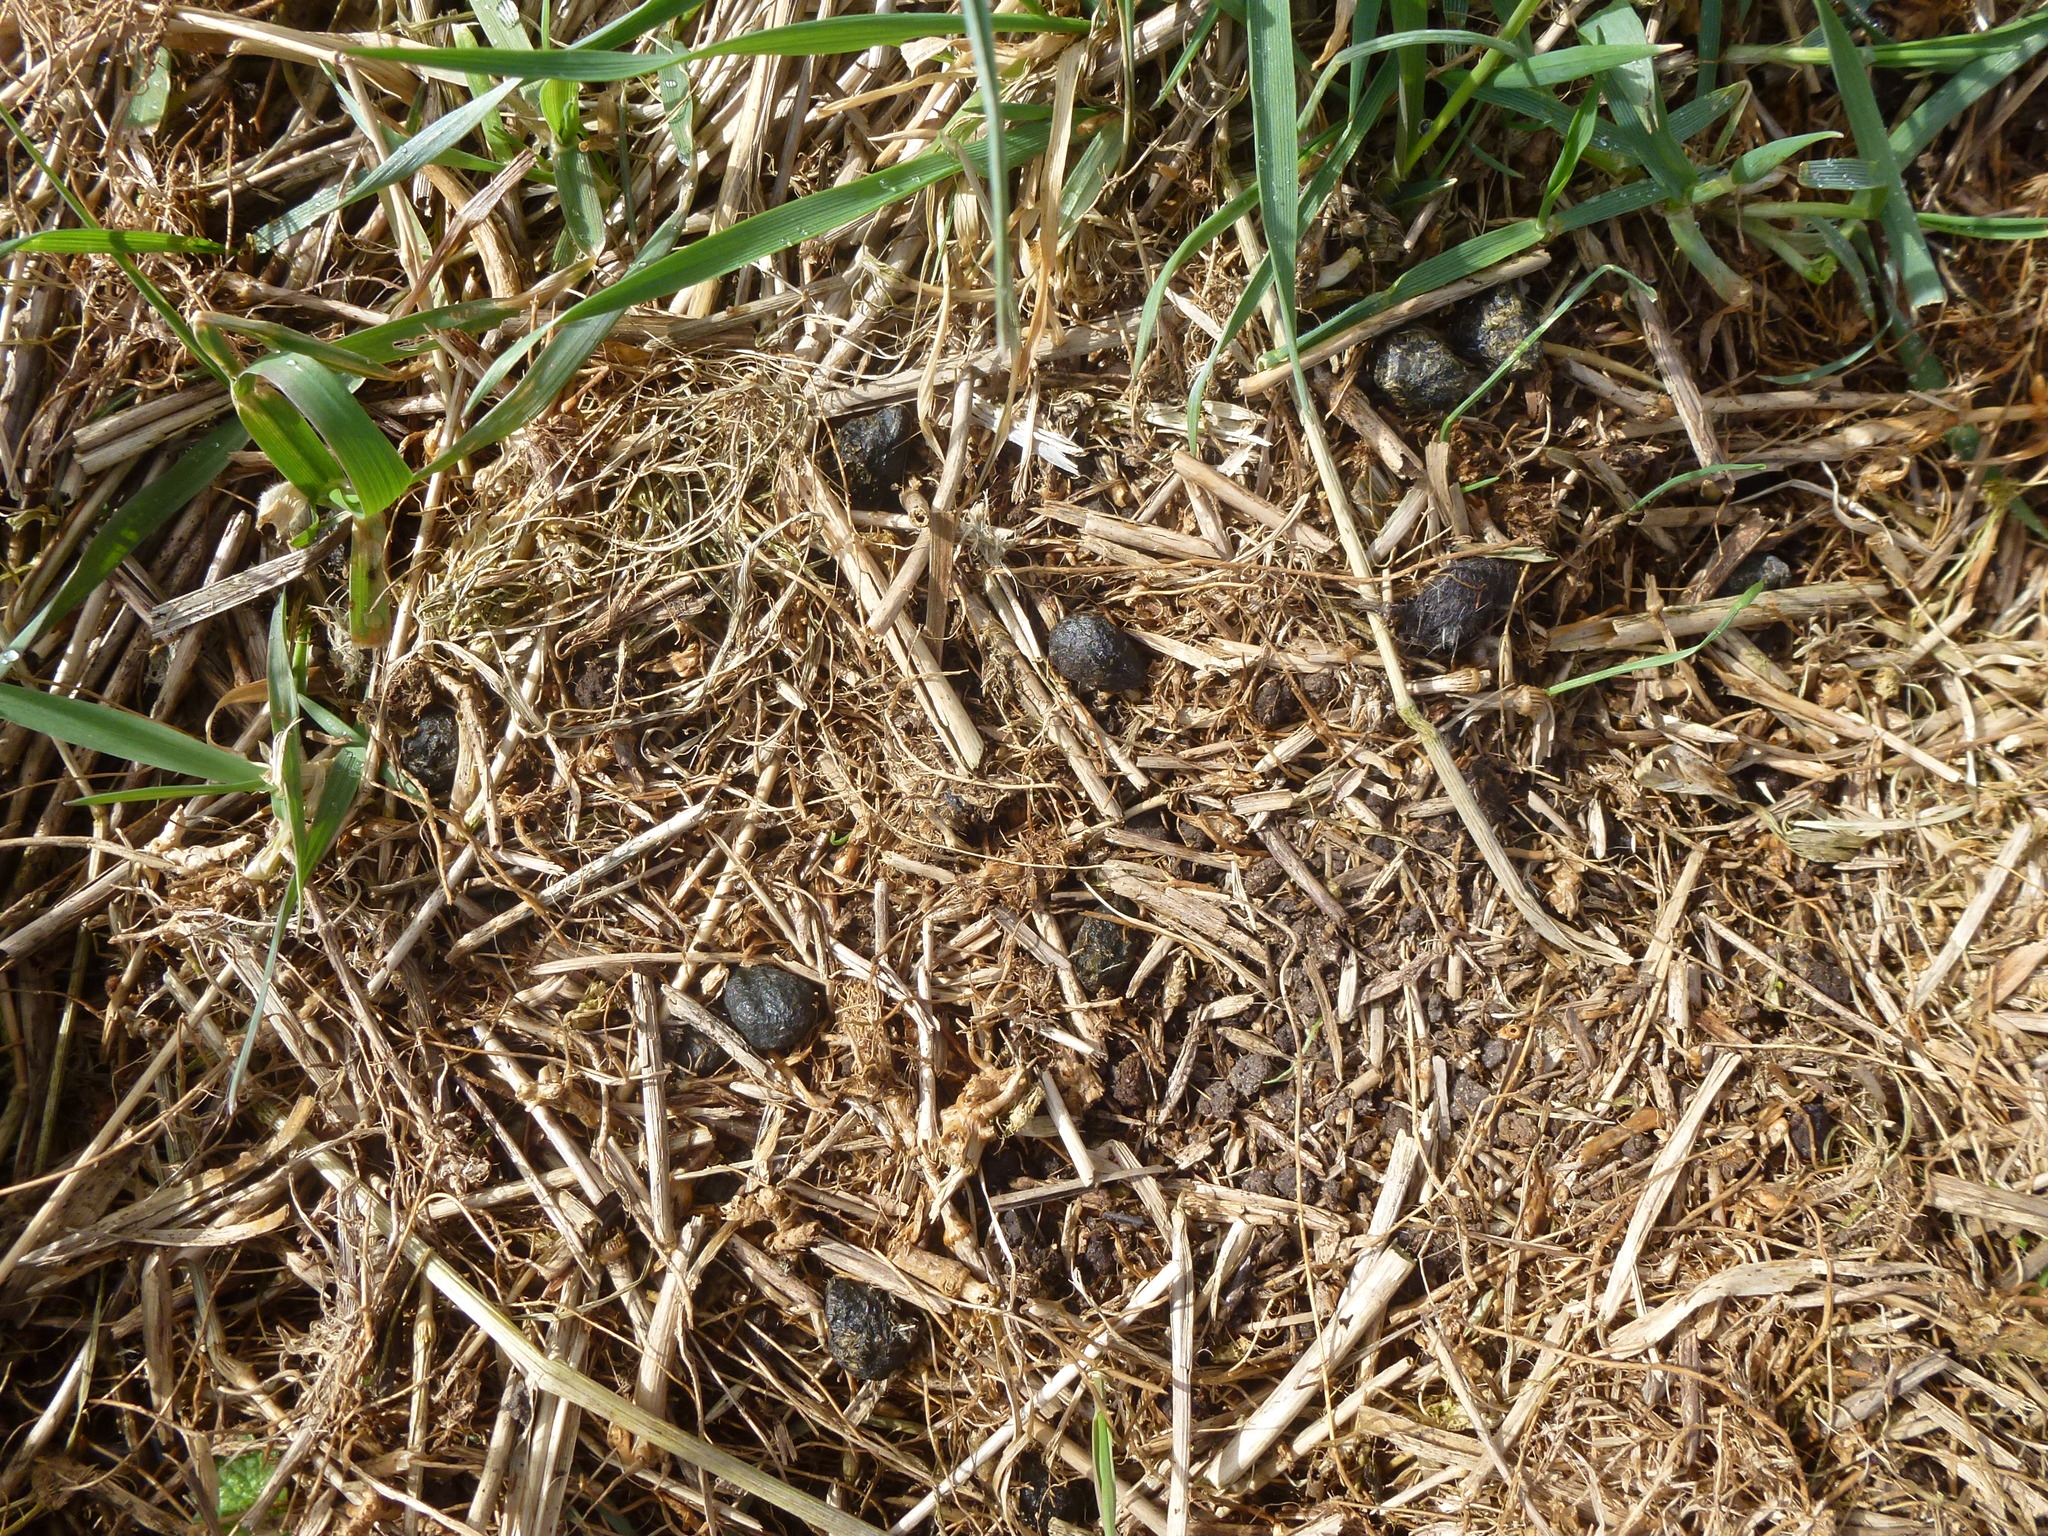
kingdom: Animalia
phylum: Chordata
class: Mammalia
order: Lagomorpha
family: Leporidae
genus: Oryctolagus
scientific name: Oryctolagus cuniculus
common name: European rabbit
